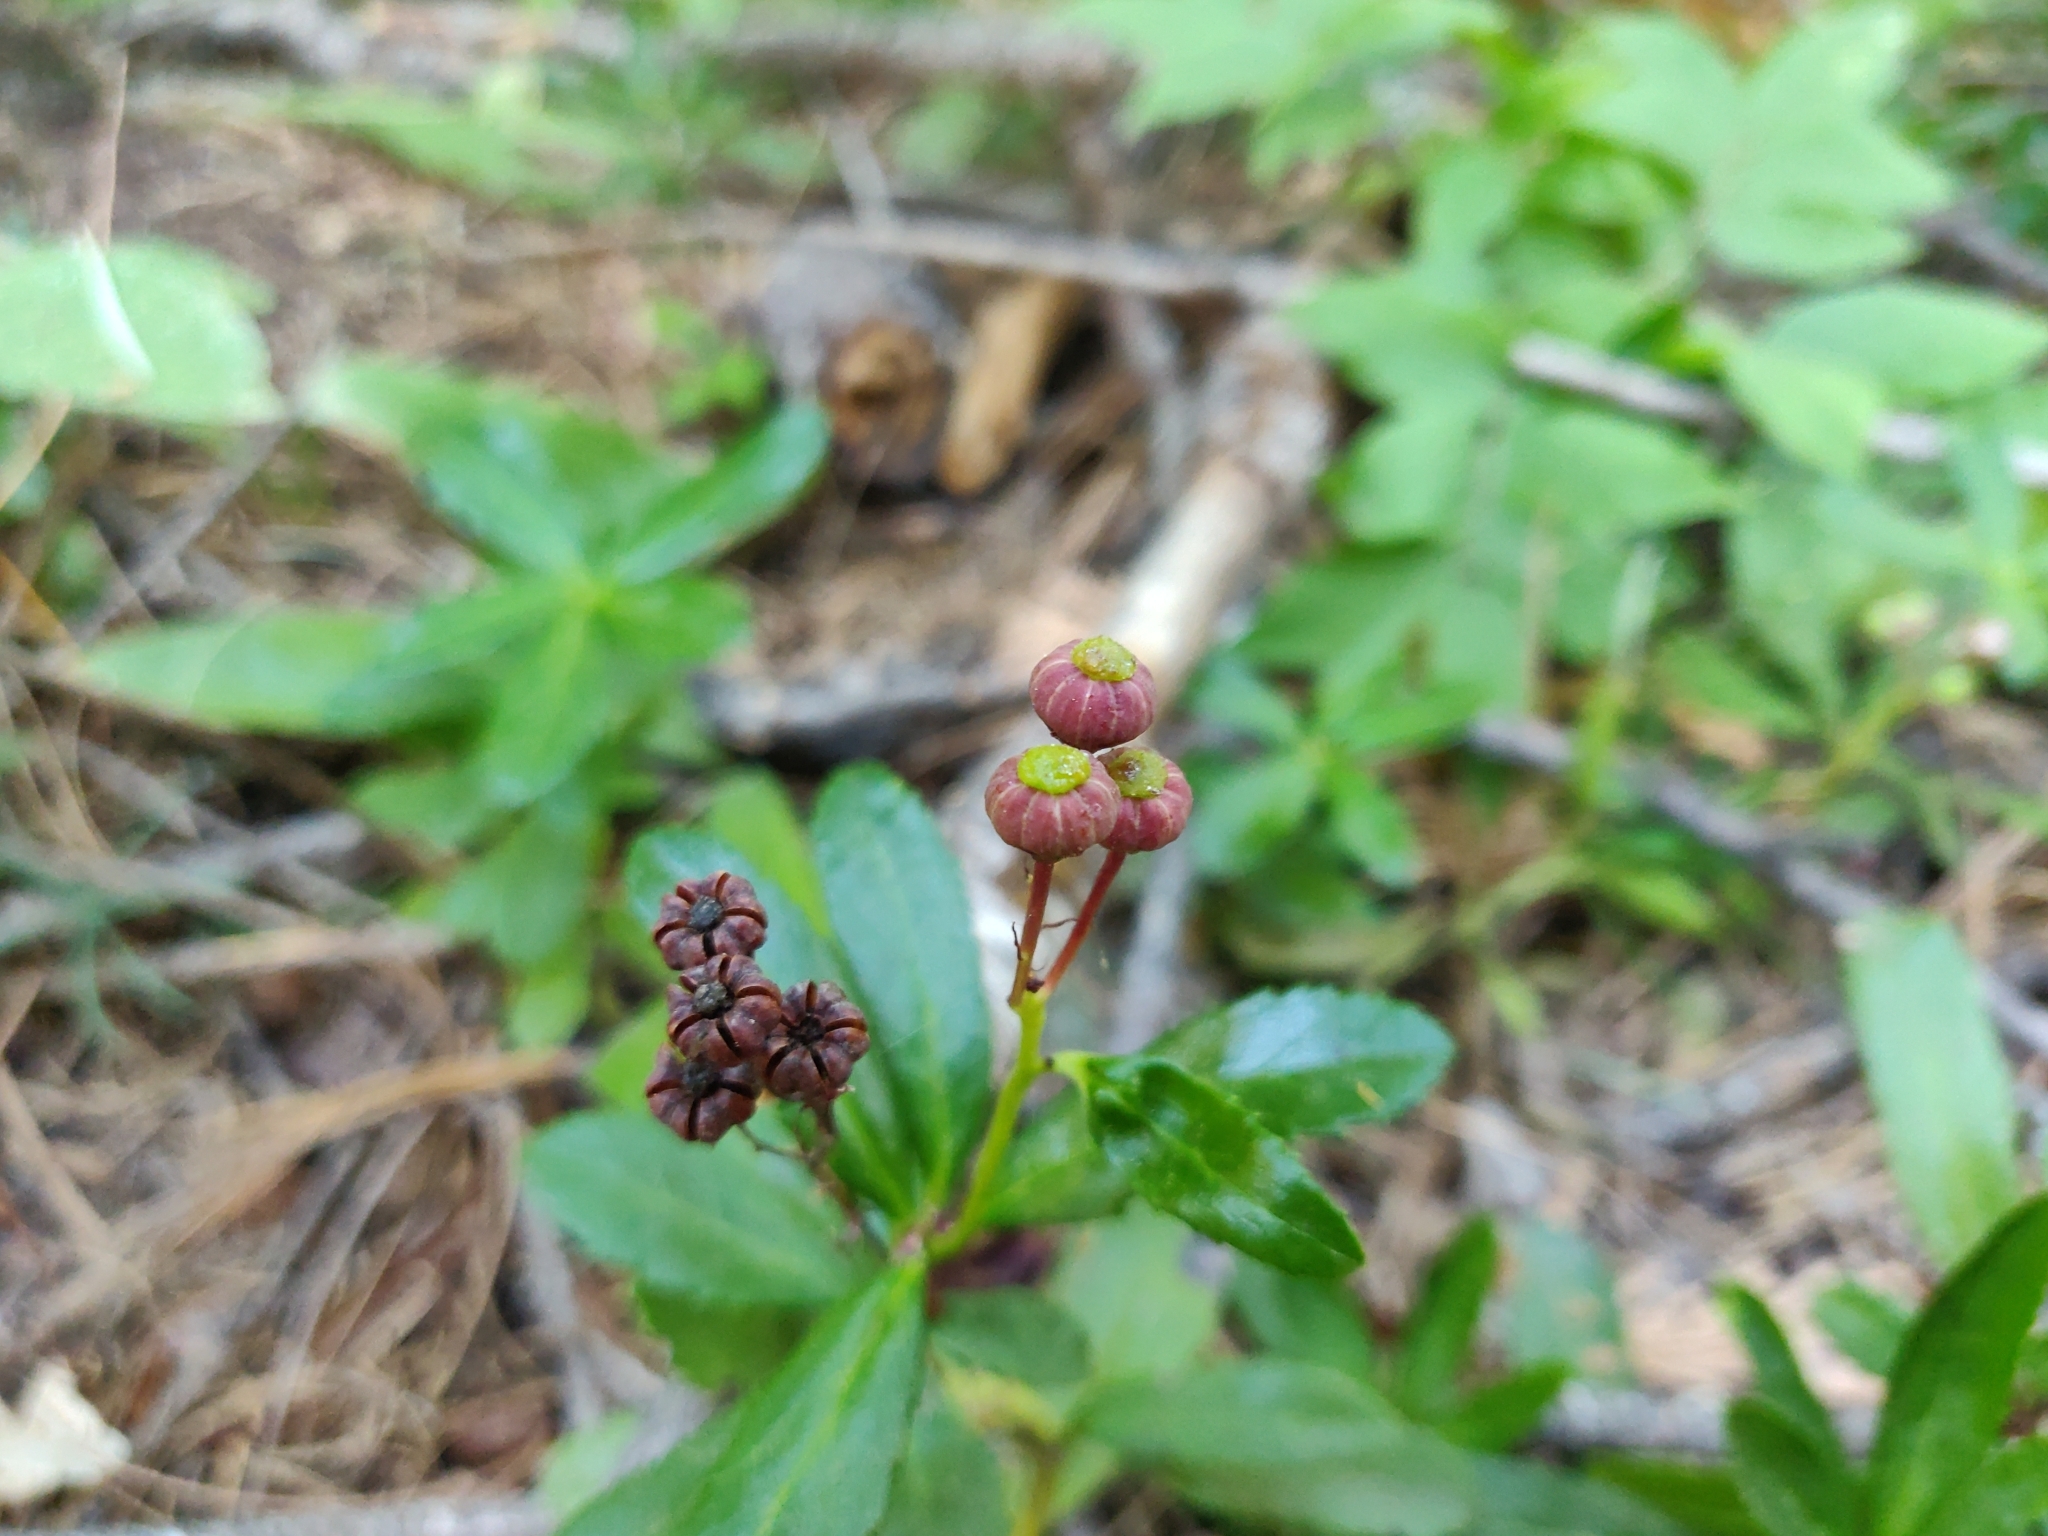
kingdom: Plantae
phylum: Tracheophyta
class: Magnoliopsida
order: Ericales
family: Ericaceae
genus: Chimaphila
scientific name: Chimaphila umbellata
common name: Pipsissewa
